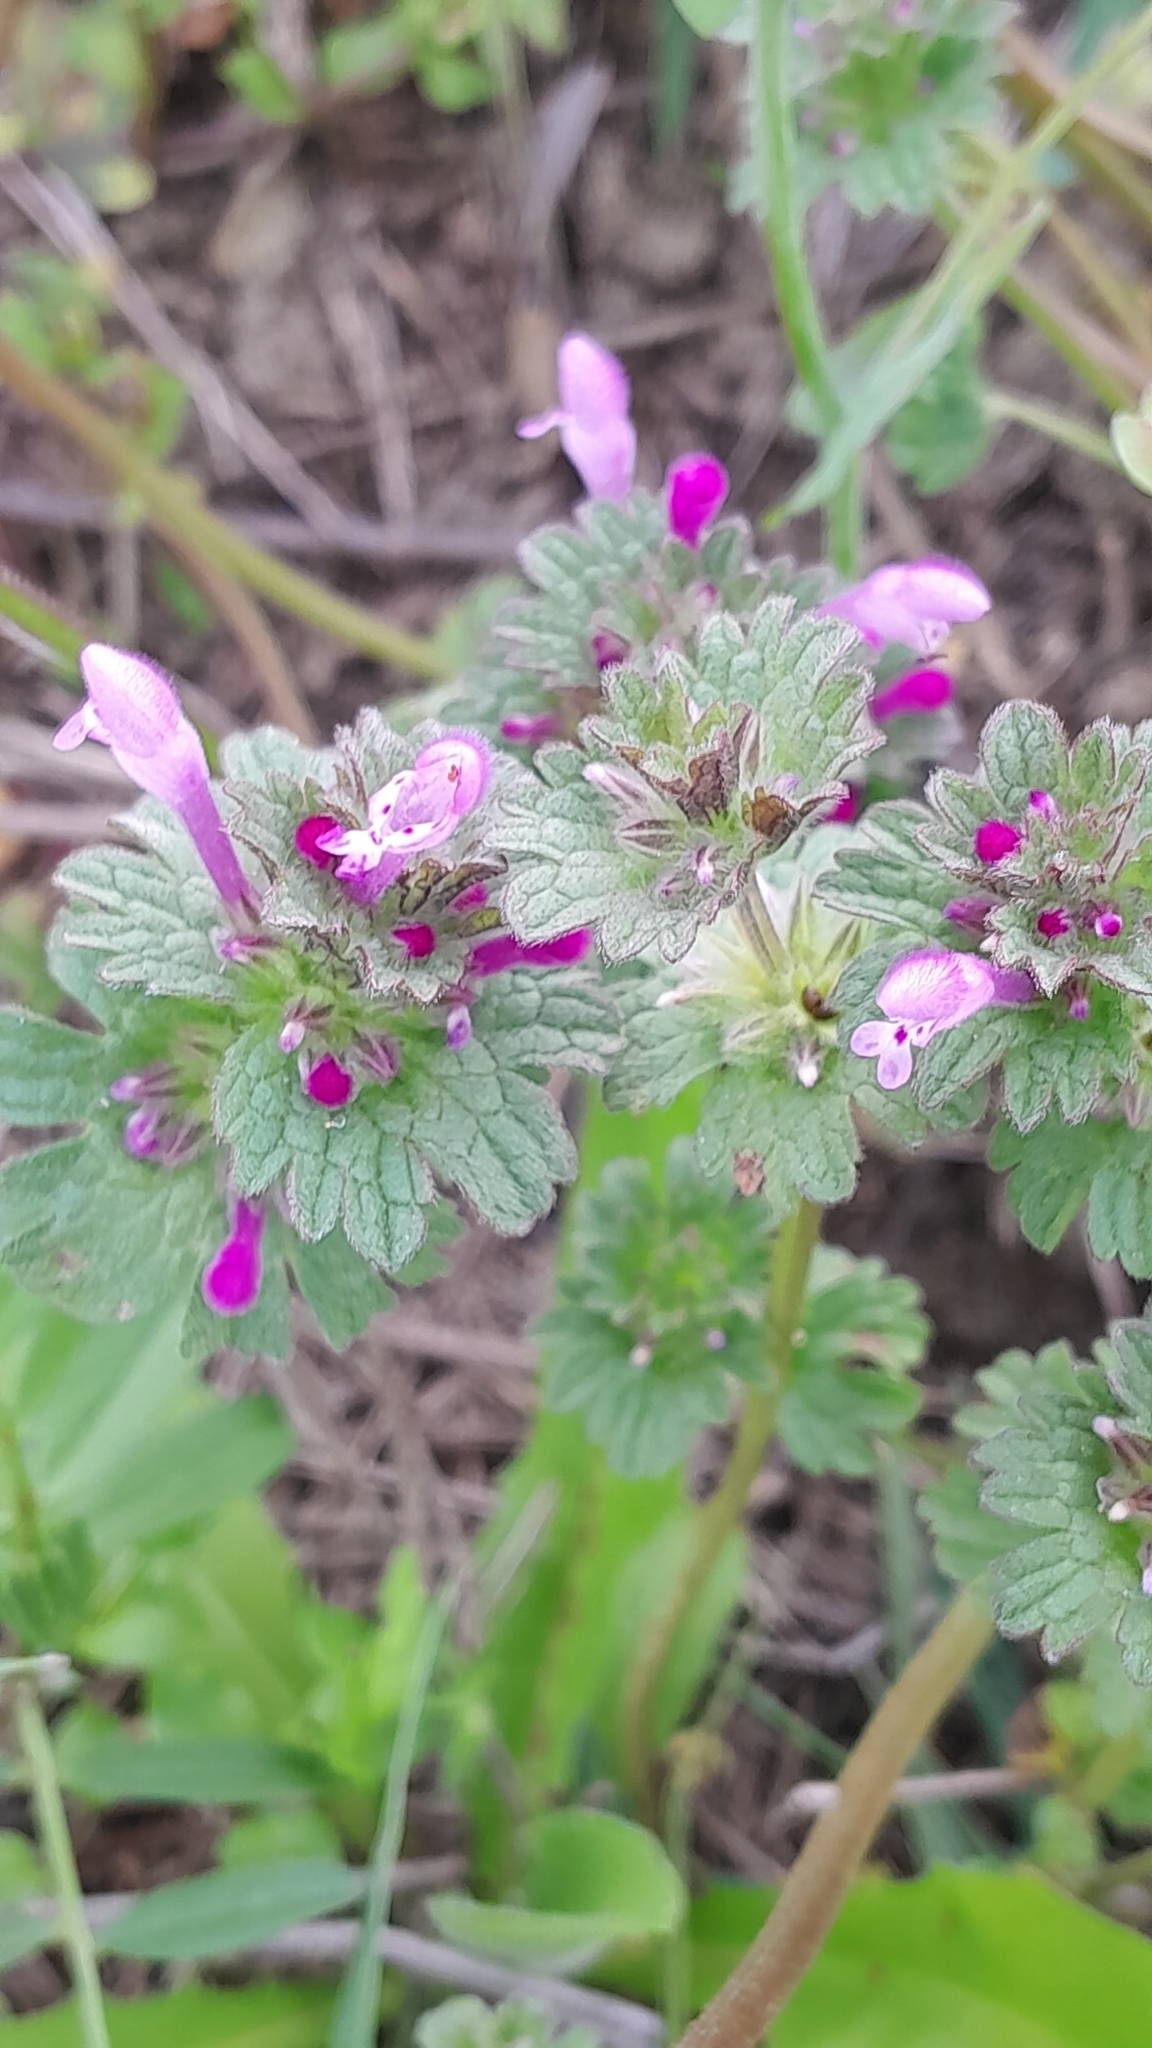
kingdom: Plantae
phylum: Tracheophyta
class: Magnoliopsida
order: Lamiales
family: Lamiaceae
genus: Lamium
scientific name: Lamium amplexicaule
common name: Henbit dead-nettle
